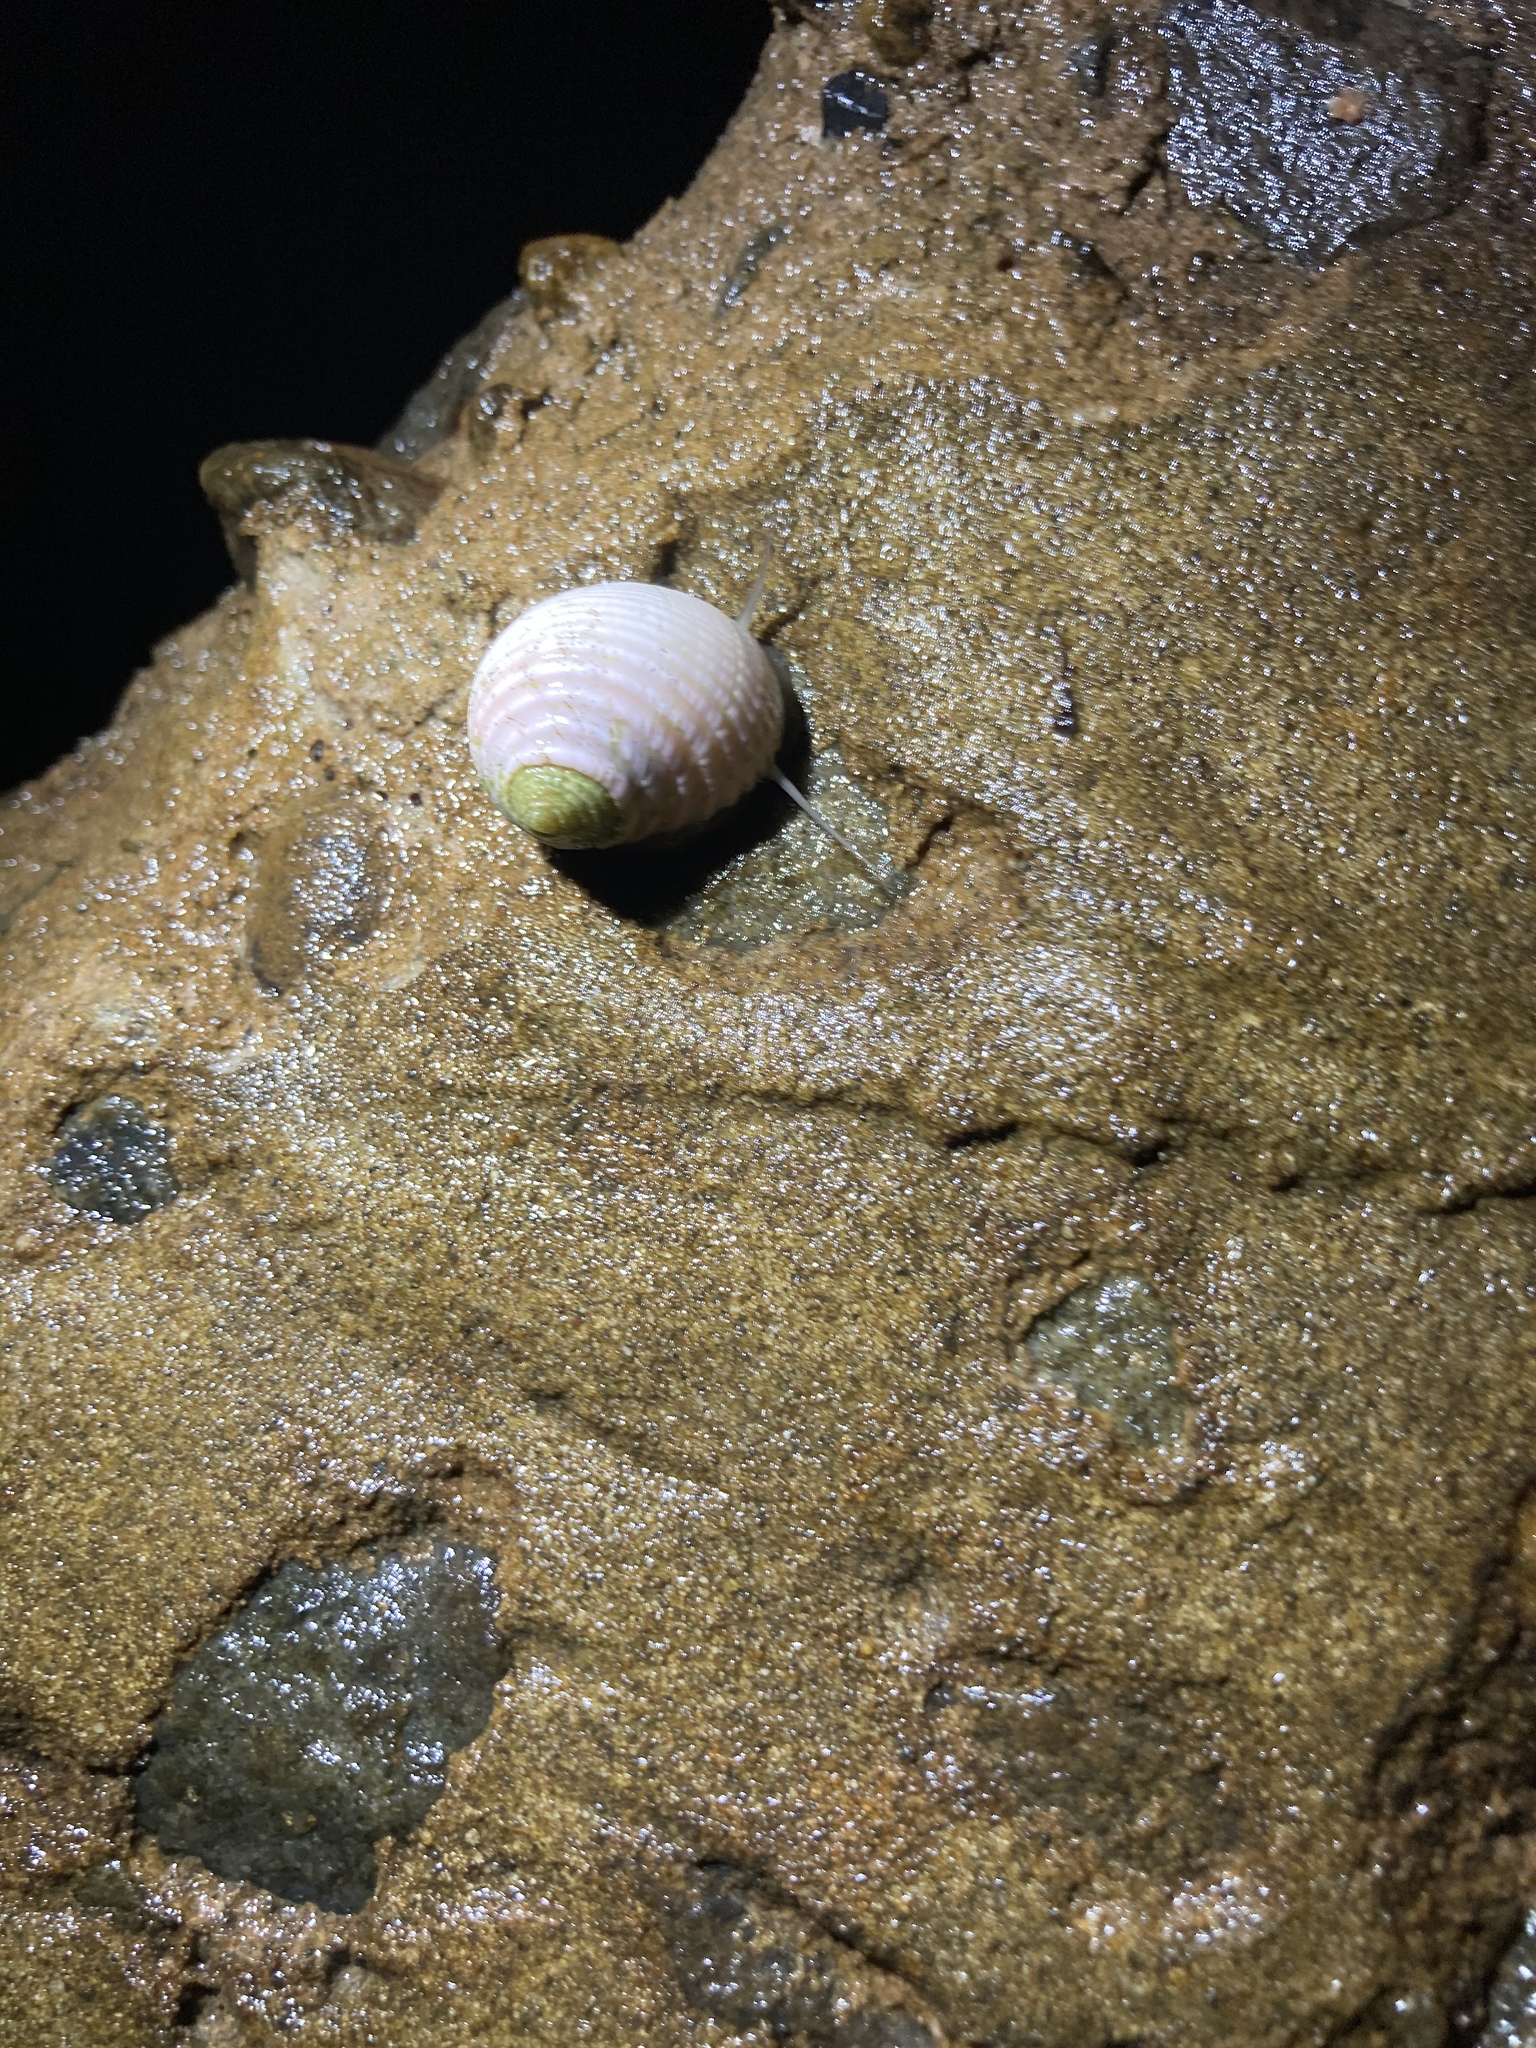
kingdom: Animalia
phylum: Mollusca
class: Gastropoda
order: Cycloneritida
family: Neritidae
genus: Nerita
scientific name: Nerita plicata
